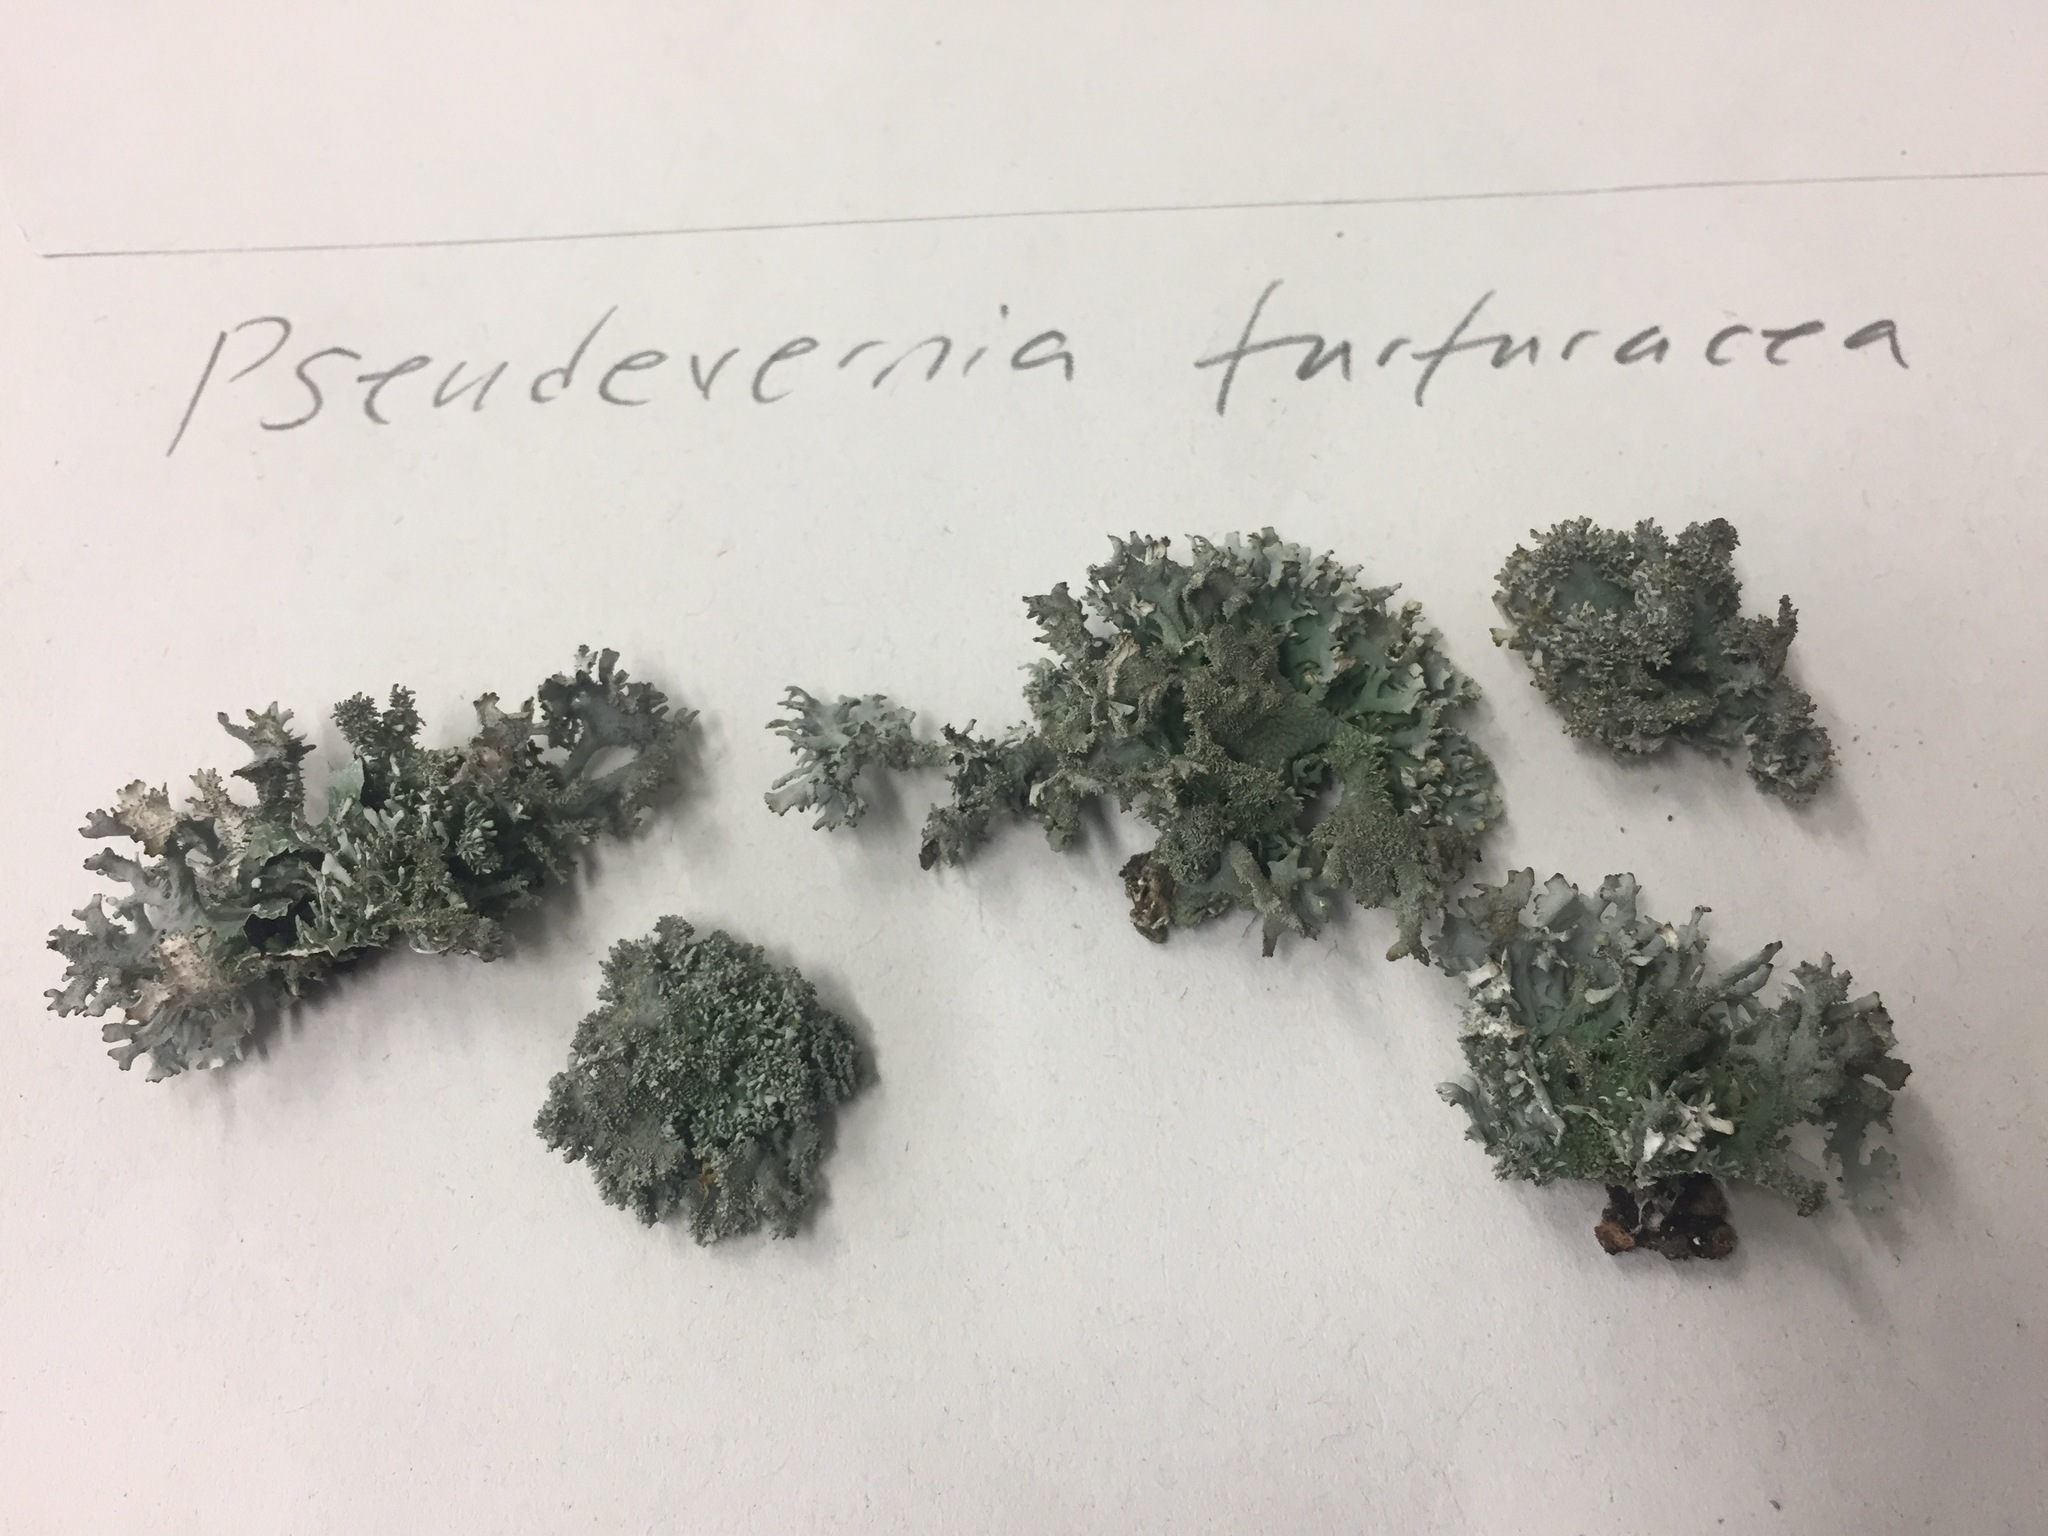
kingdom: Fungi
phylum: Ascomycota
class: Lecanoromycetes
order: Lecanorales
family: Parmeliaceae
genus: Pseudevernia
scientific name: Pseudevernia furfuracea
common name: Tree moss
